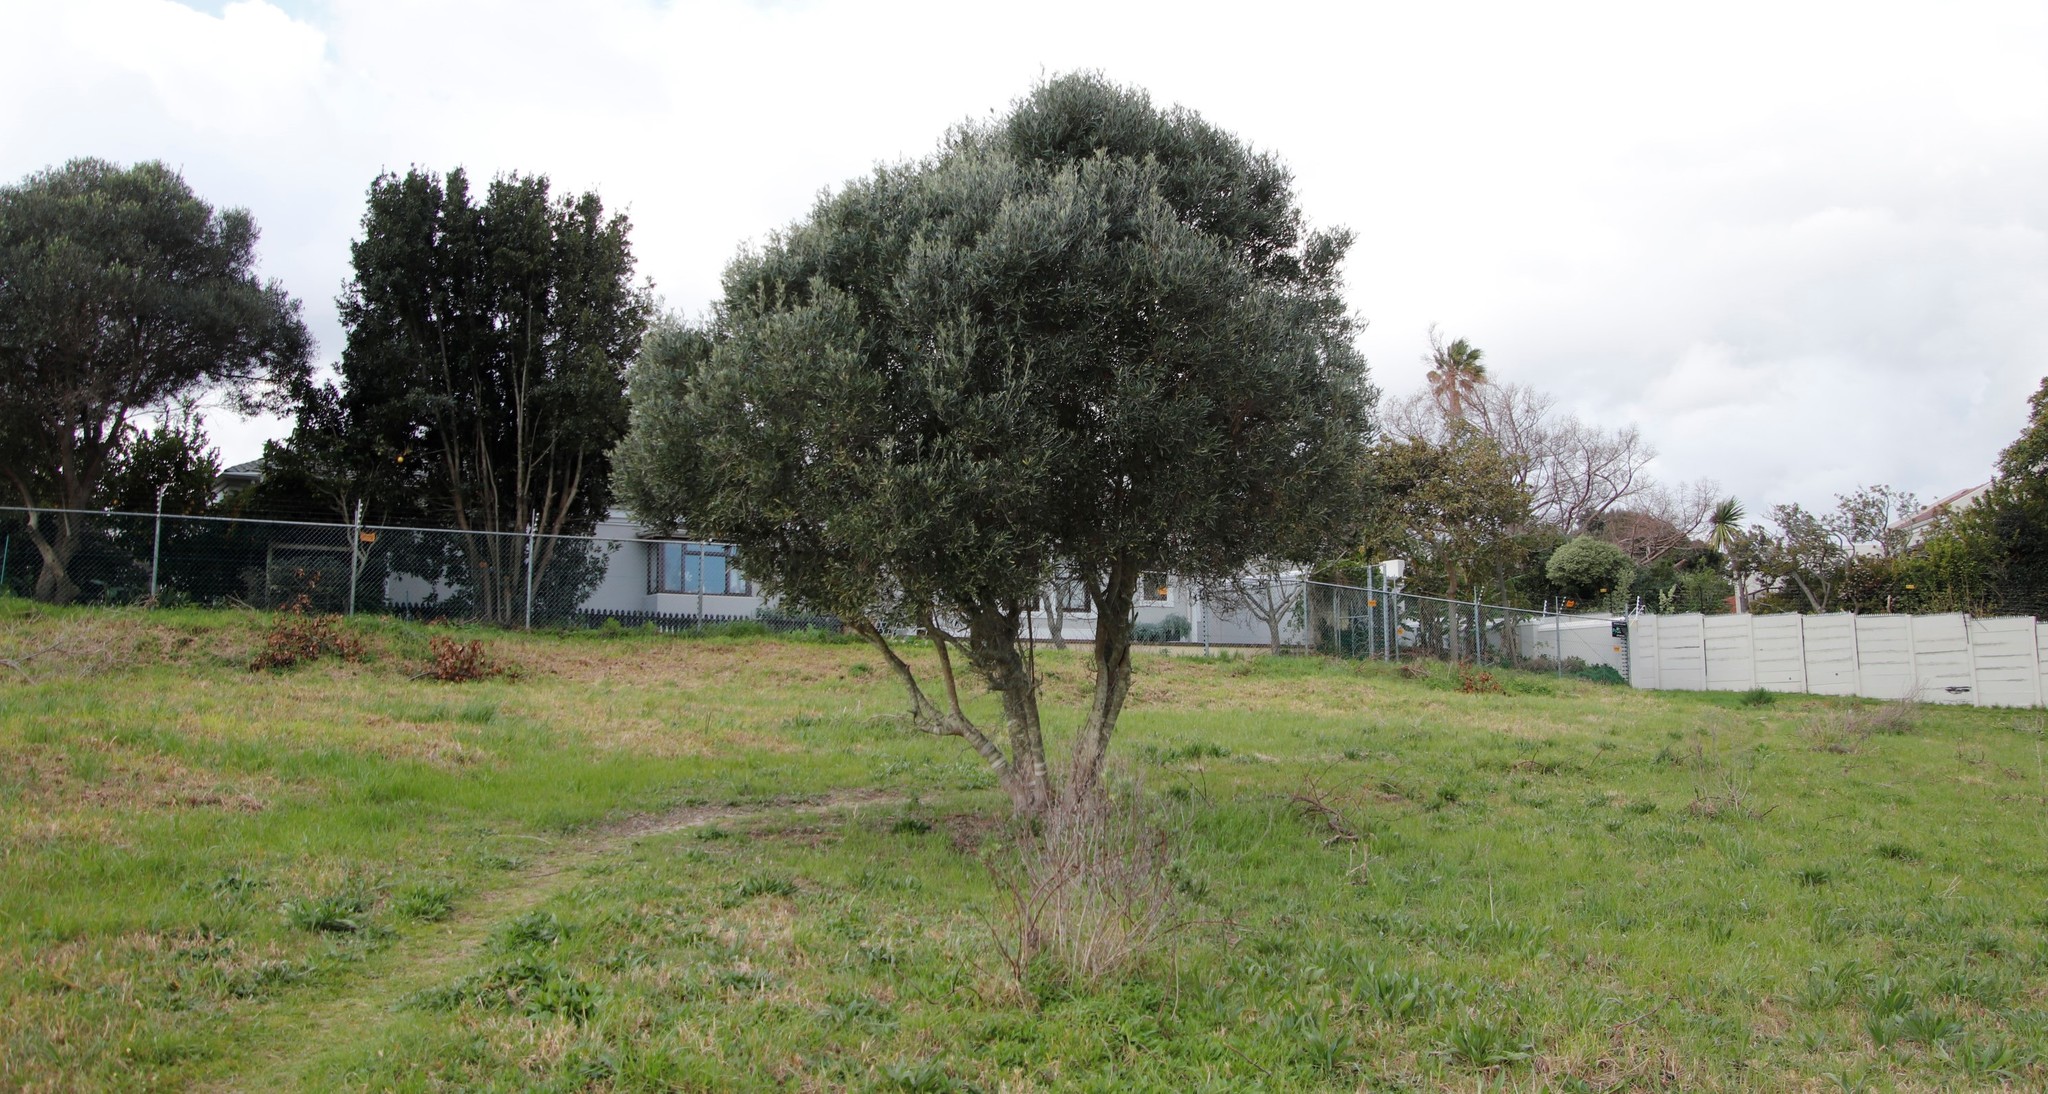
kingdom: Plantae
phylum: Tracheophyta
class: Magnoliopsida
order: Lamiales
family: Oleaceae
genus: Olea
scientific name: Olea europaea
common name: Olive
